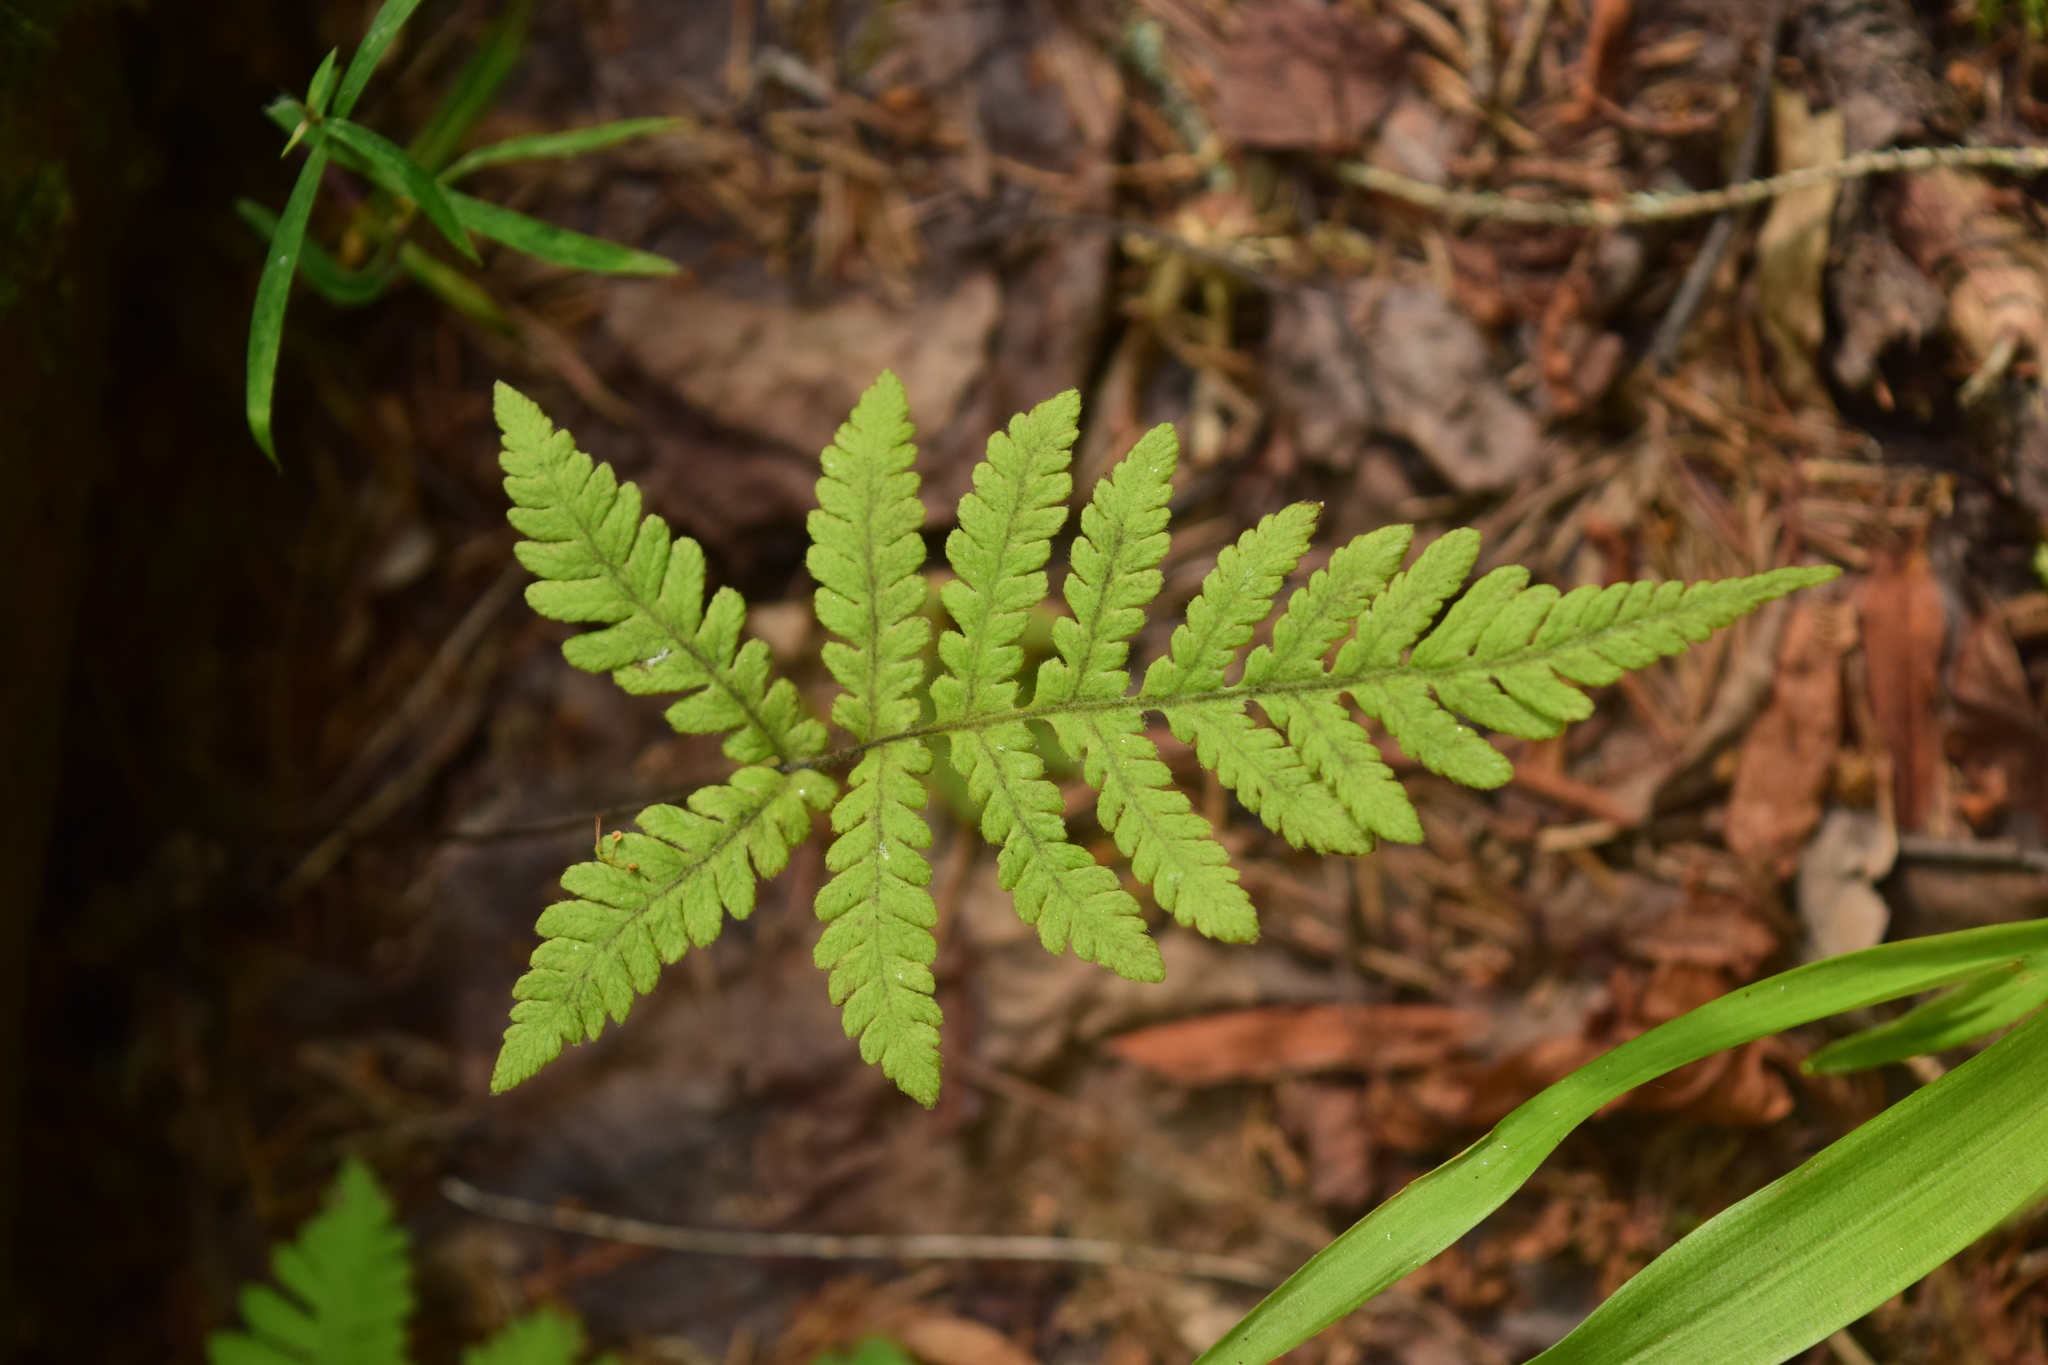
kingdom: Plantae
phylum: Tracheophyta
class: Polypodiopsida
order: Polypodiales
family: Thelypteridaceae
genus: Phegopteris
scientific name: Phegopteris connectilis
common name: Beech fern
